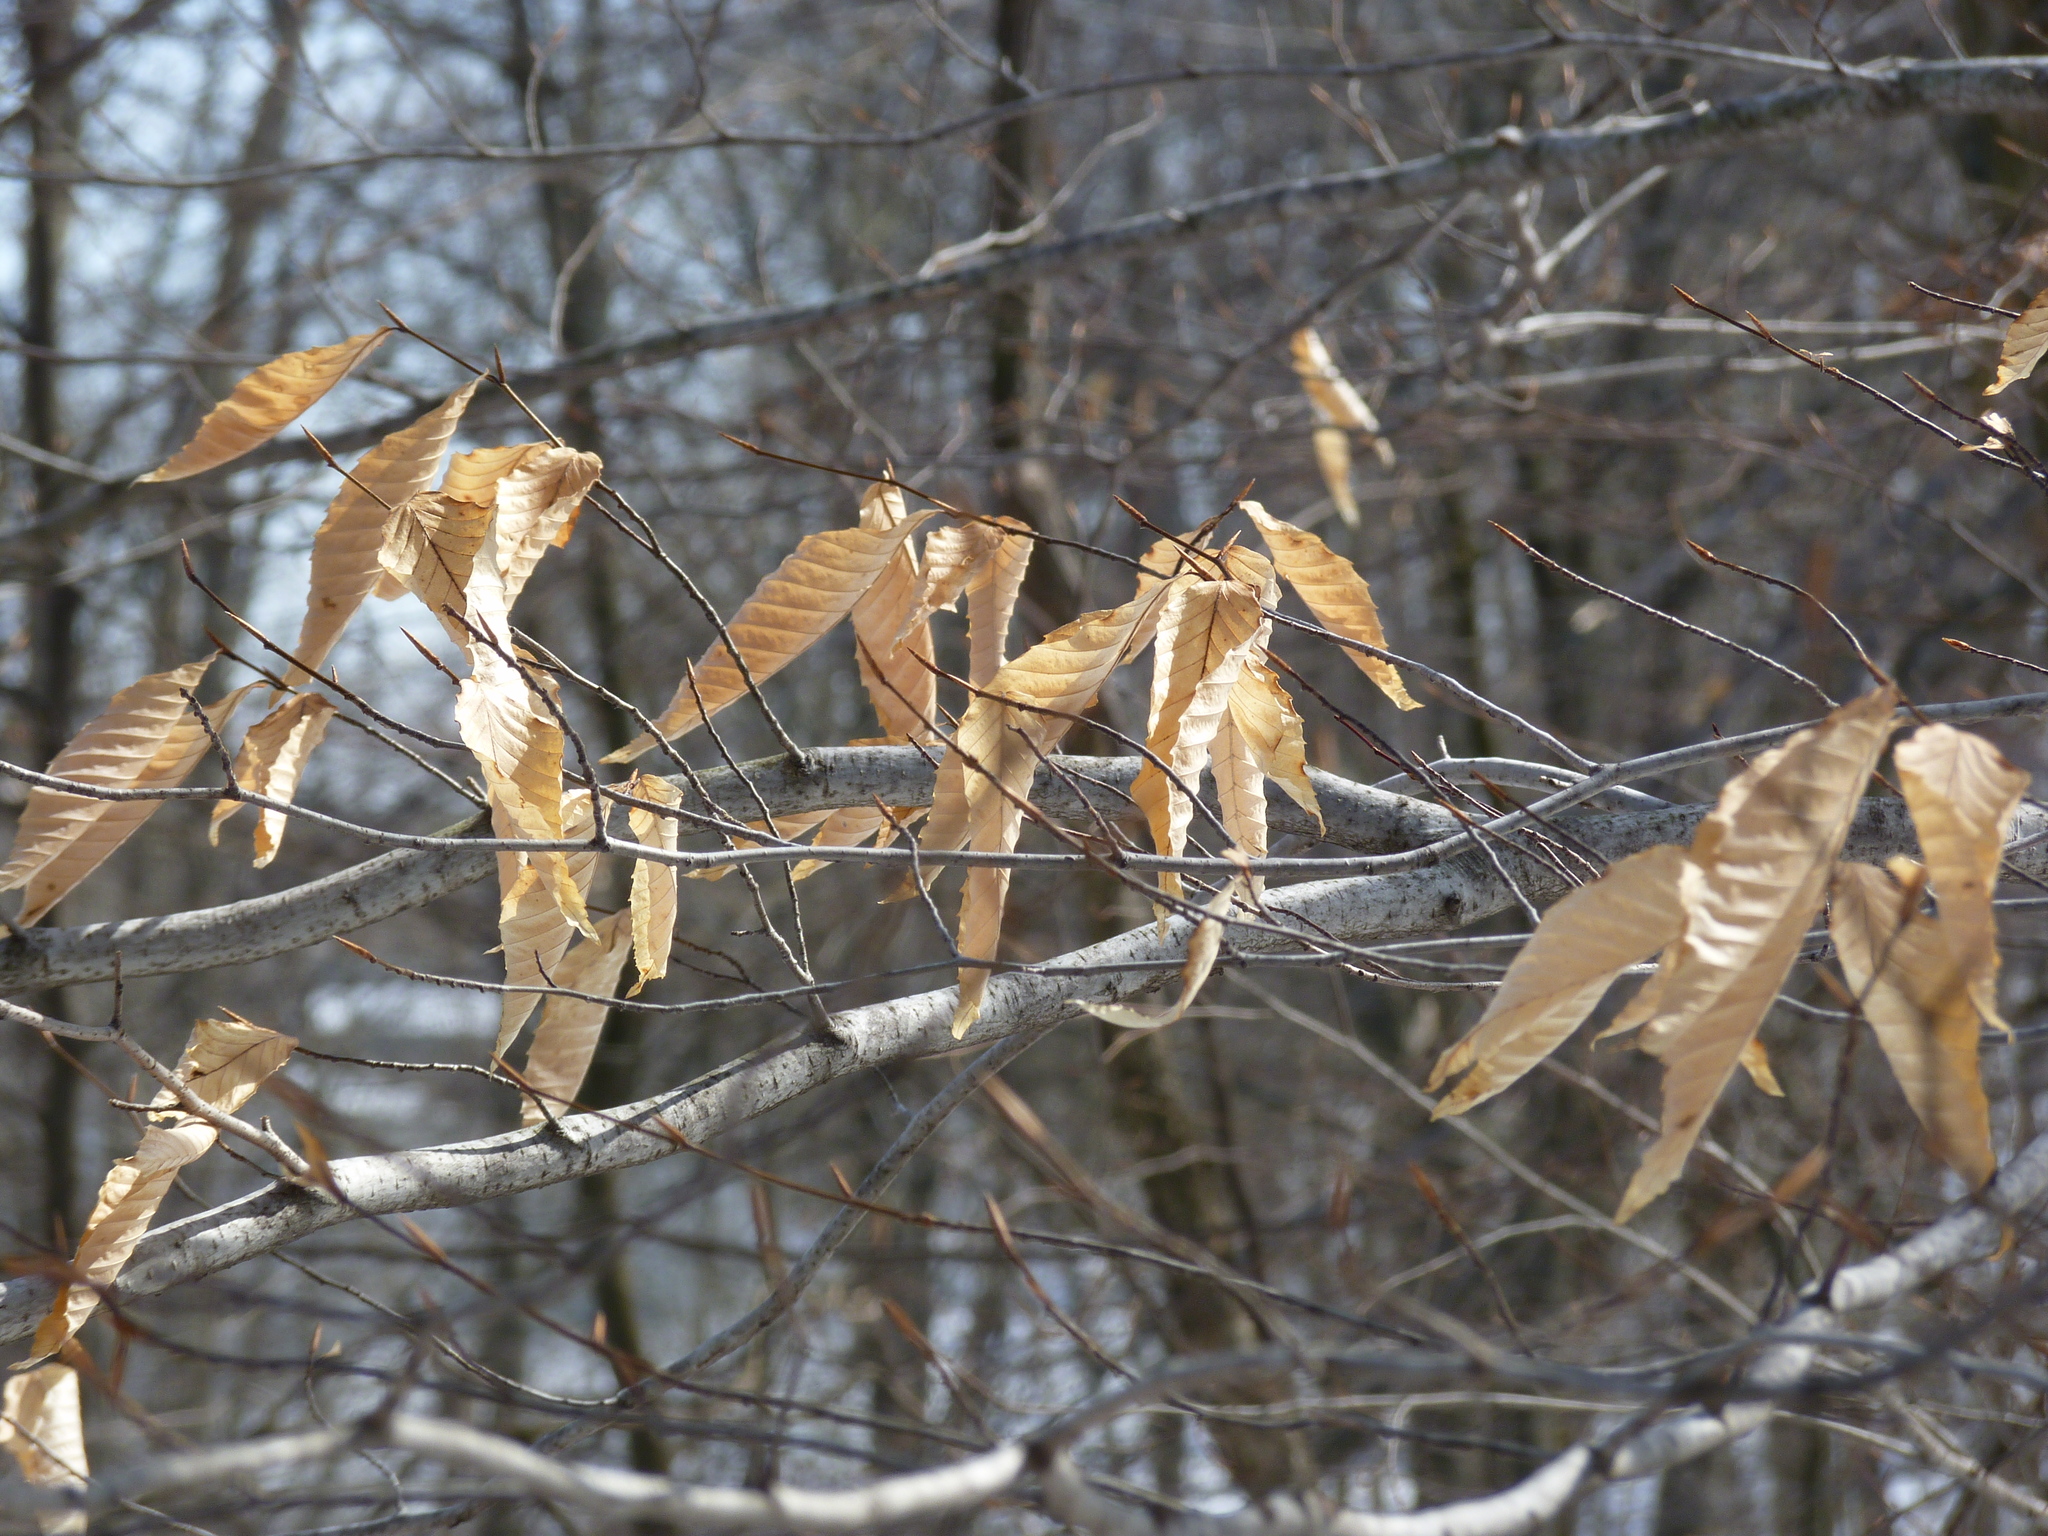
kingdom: Plantae
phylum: Tracheophyta
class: Magnoliopsida
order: Fagales
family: Fagaceae
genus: Fagus
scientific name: Fagus grandifolia
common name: American beech
